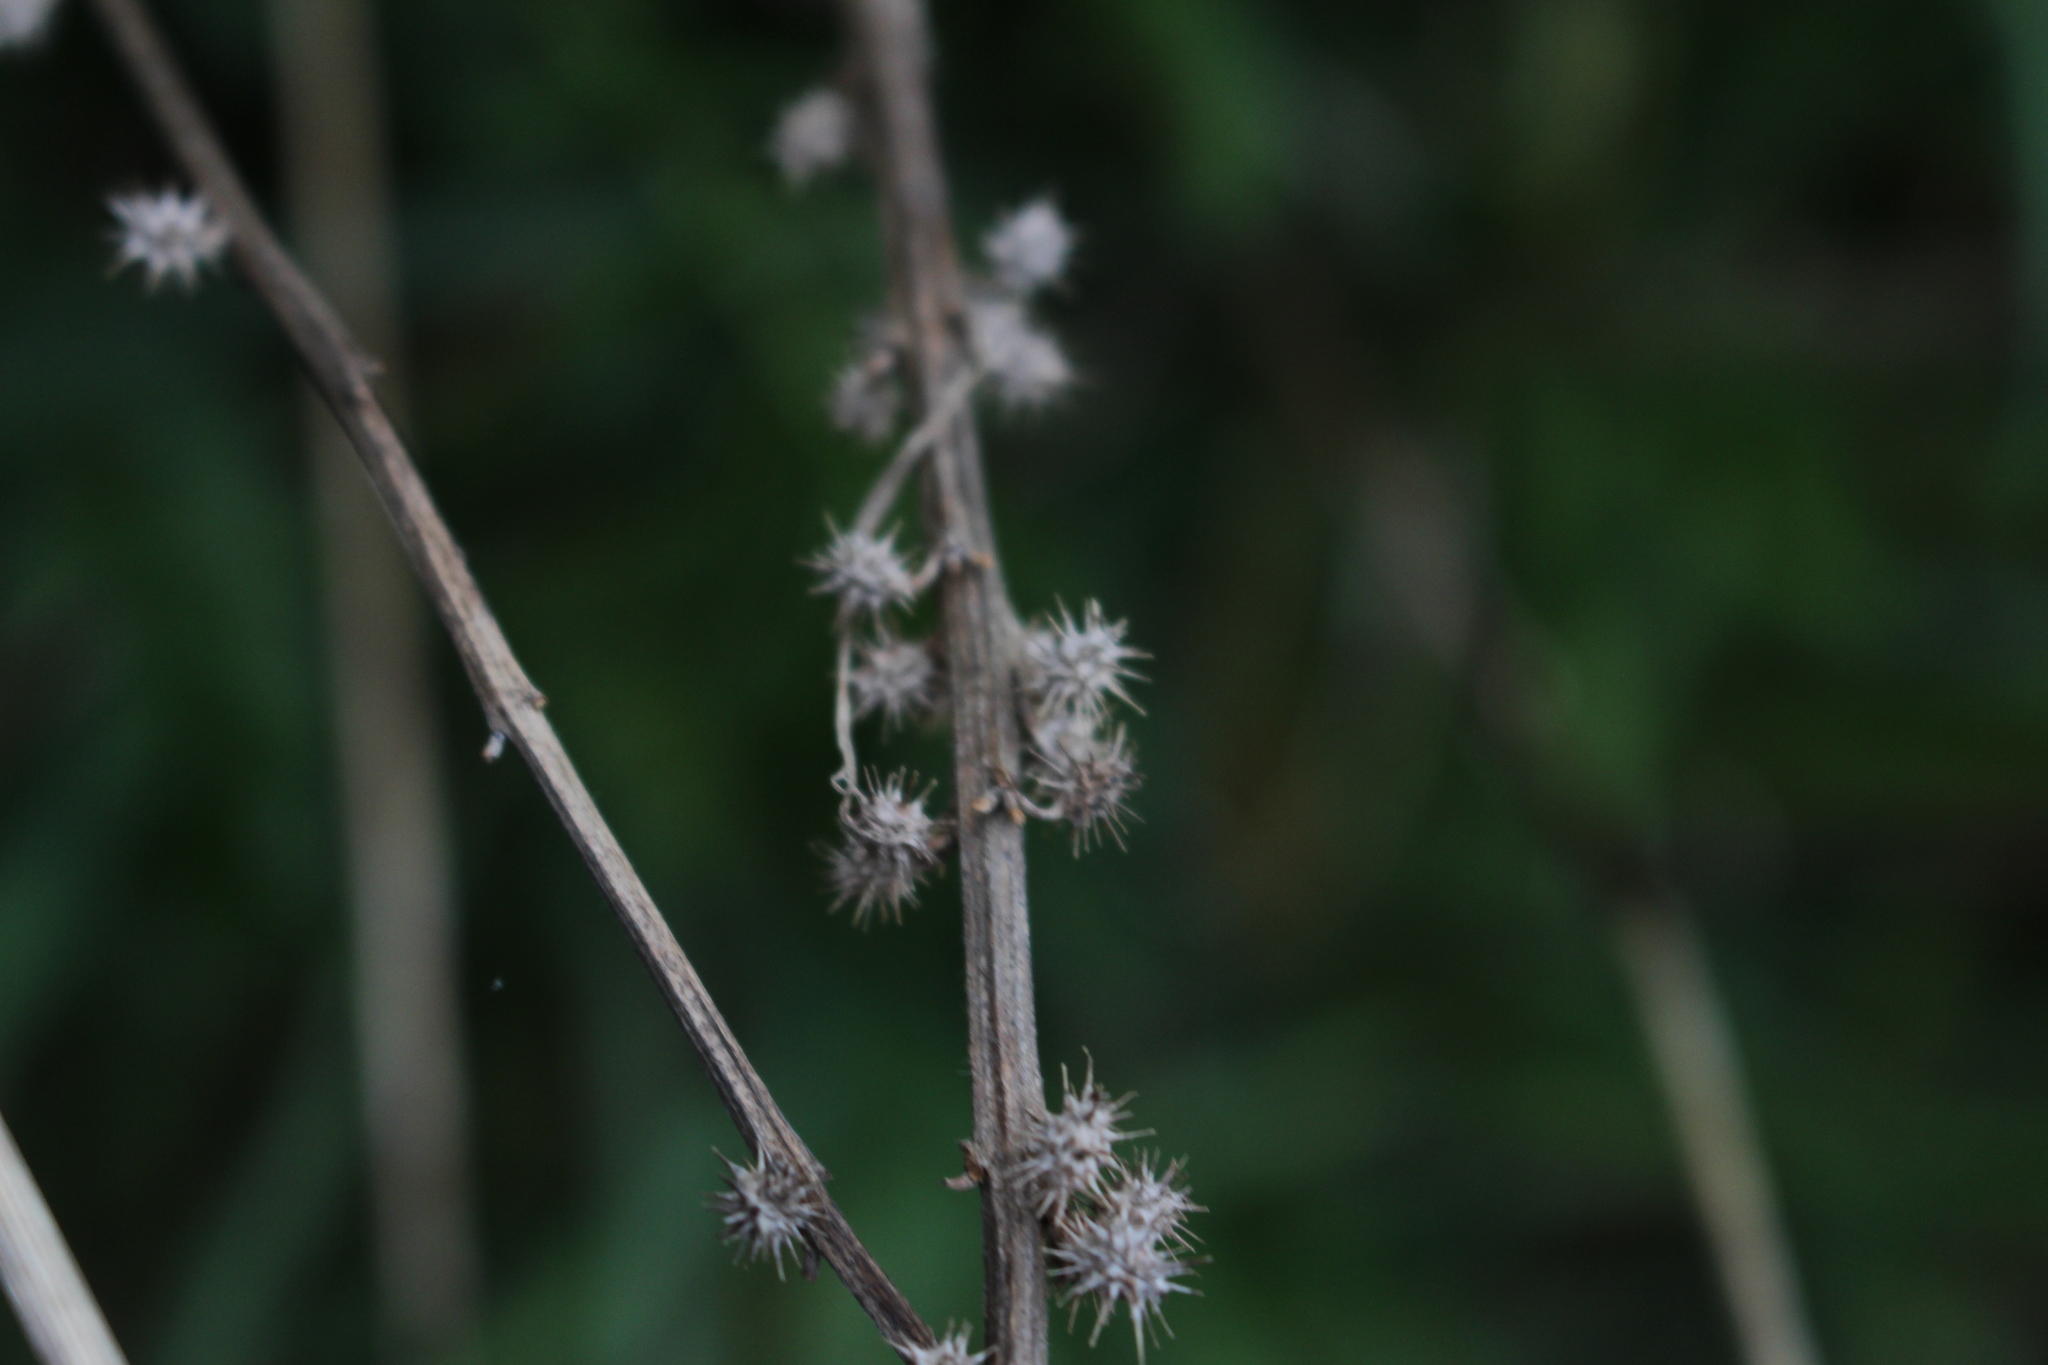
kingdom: Plantae
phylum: Tracheophyta
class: Magnoliopsida
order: Rosales
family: Rosaceae
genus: Acaena
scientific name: Acaena agnipila
